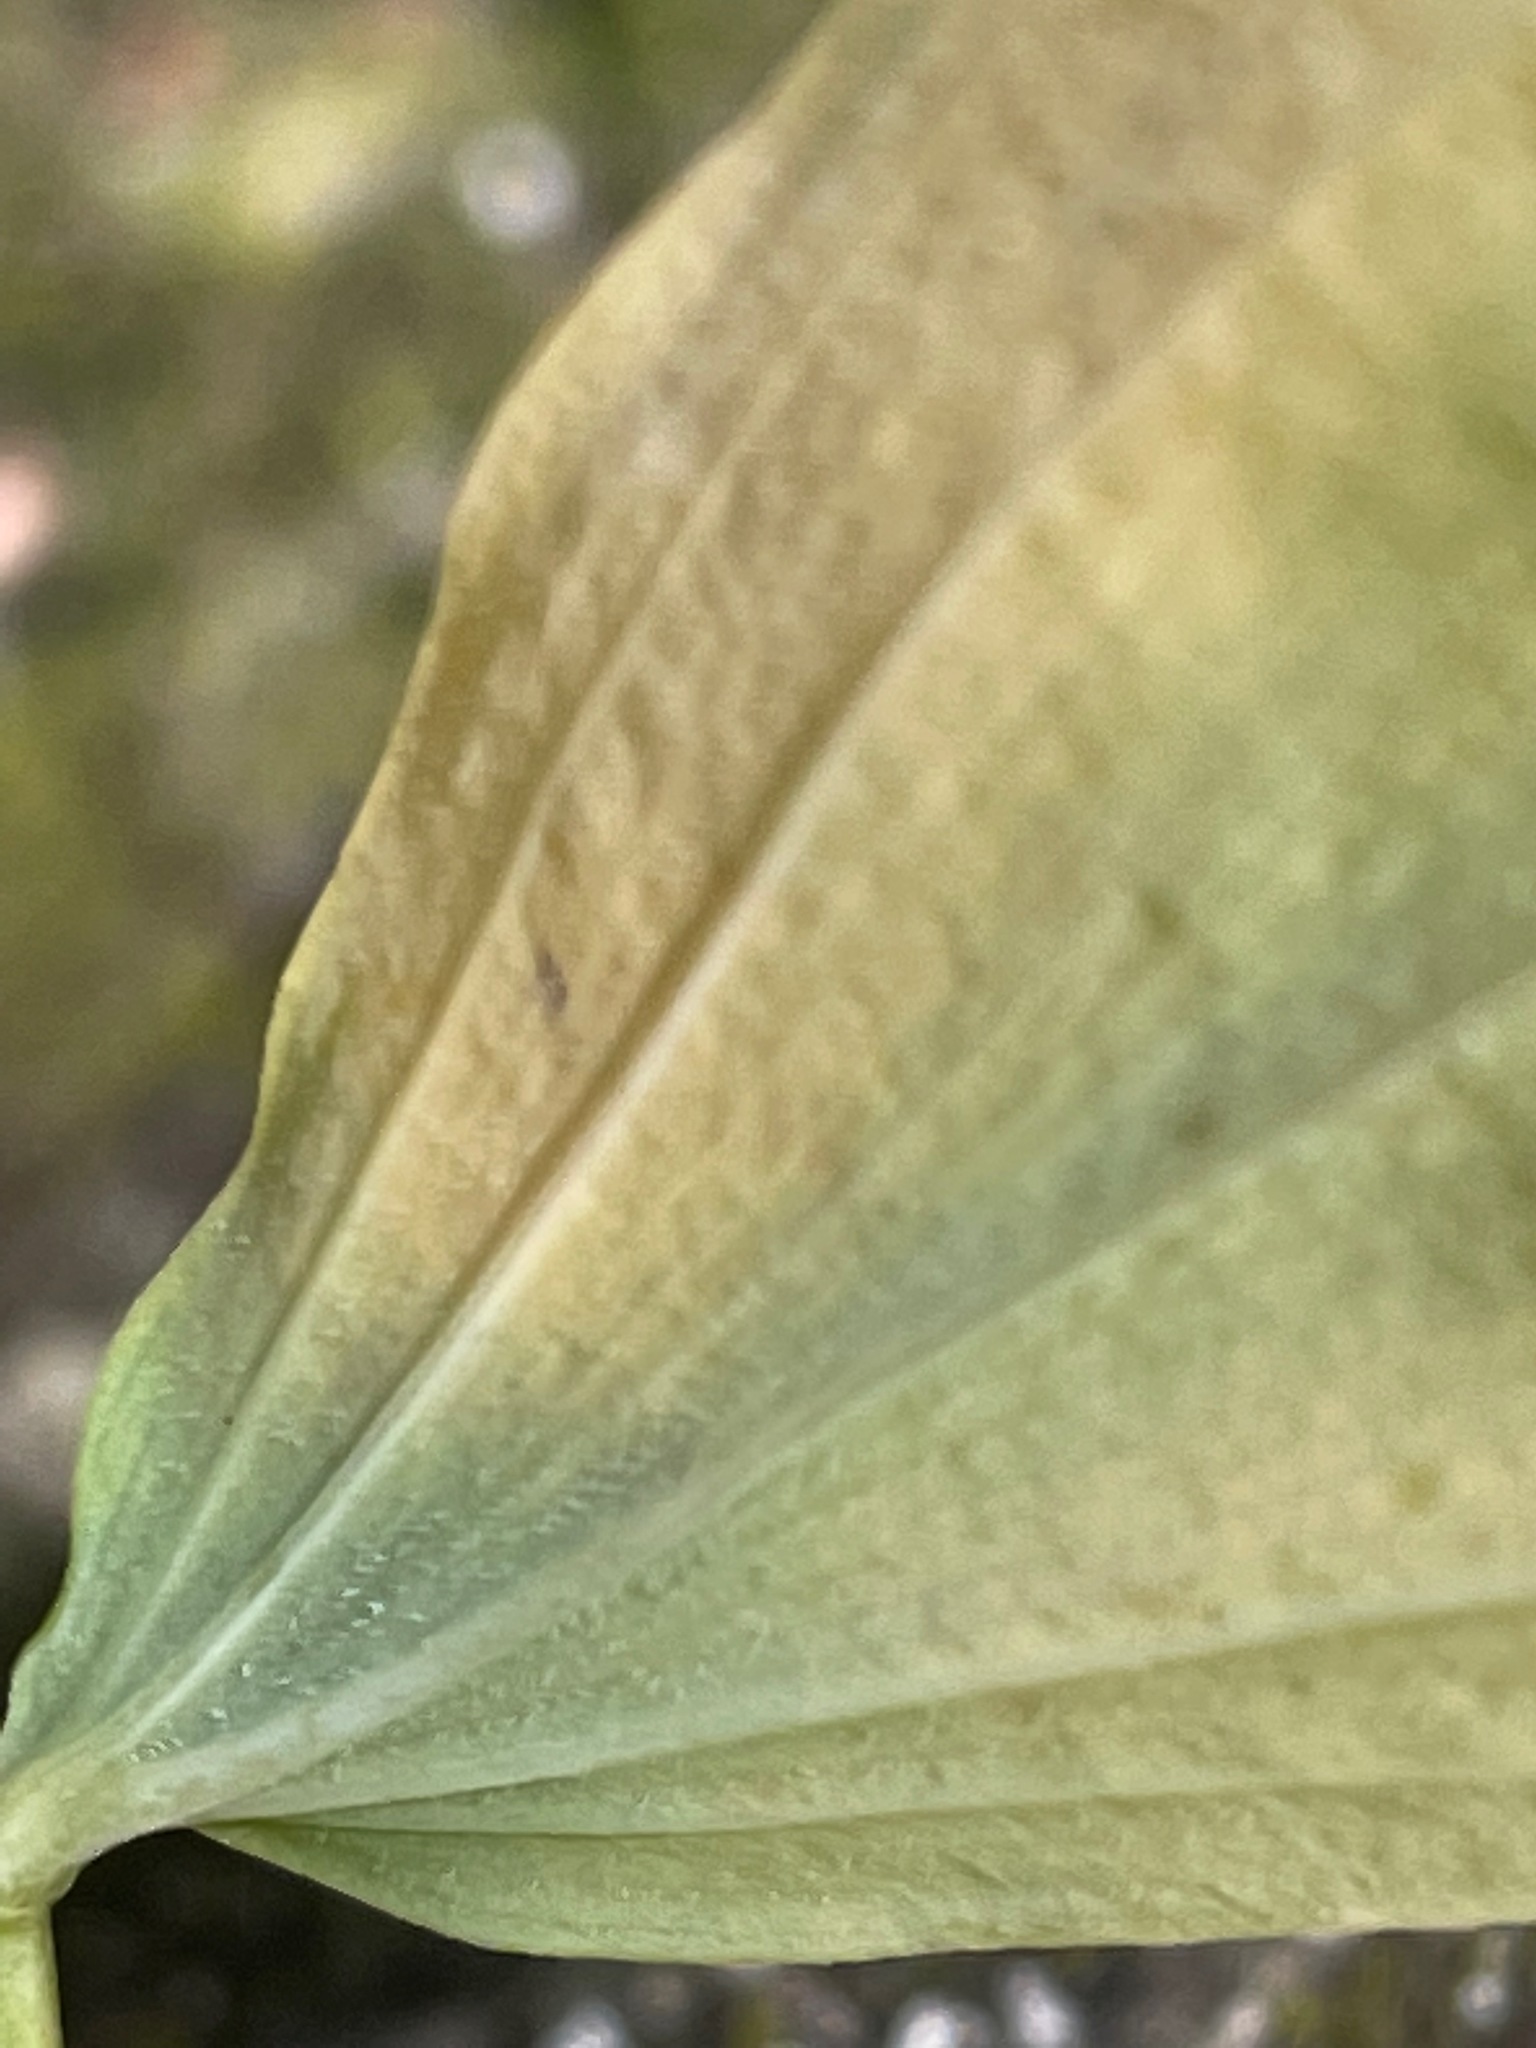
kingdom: Plantae
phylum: Tracheophyta
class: Liliopsida
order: Asparagales
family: Asparagaceae
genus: Polygonatum
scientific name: Polygonatum pubescens
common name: Downy solomon's seal
